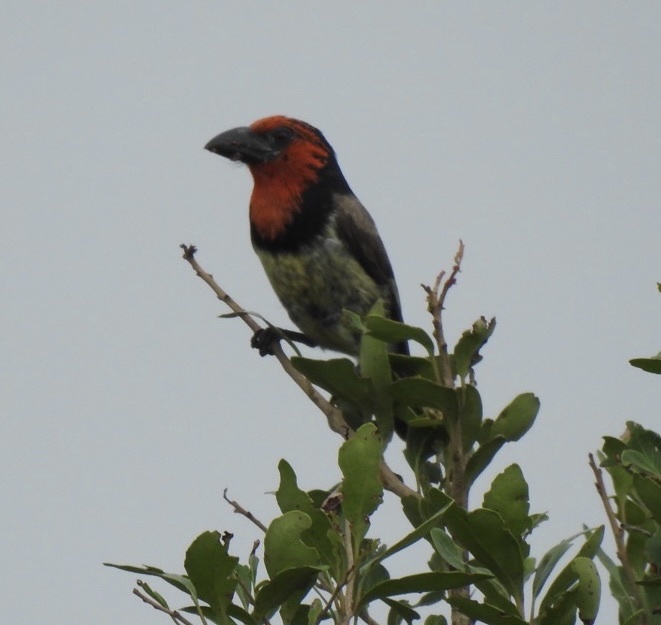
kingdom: Animalia
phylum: Chordata
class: Aves
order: Piciformes
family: Lybiidae
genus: Lybius
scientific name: Lybius torquatus
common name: Black-collared barbet
